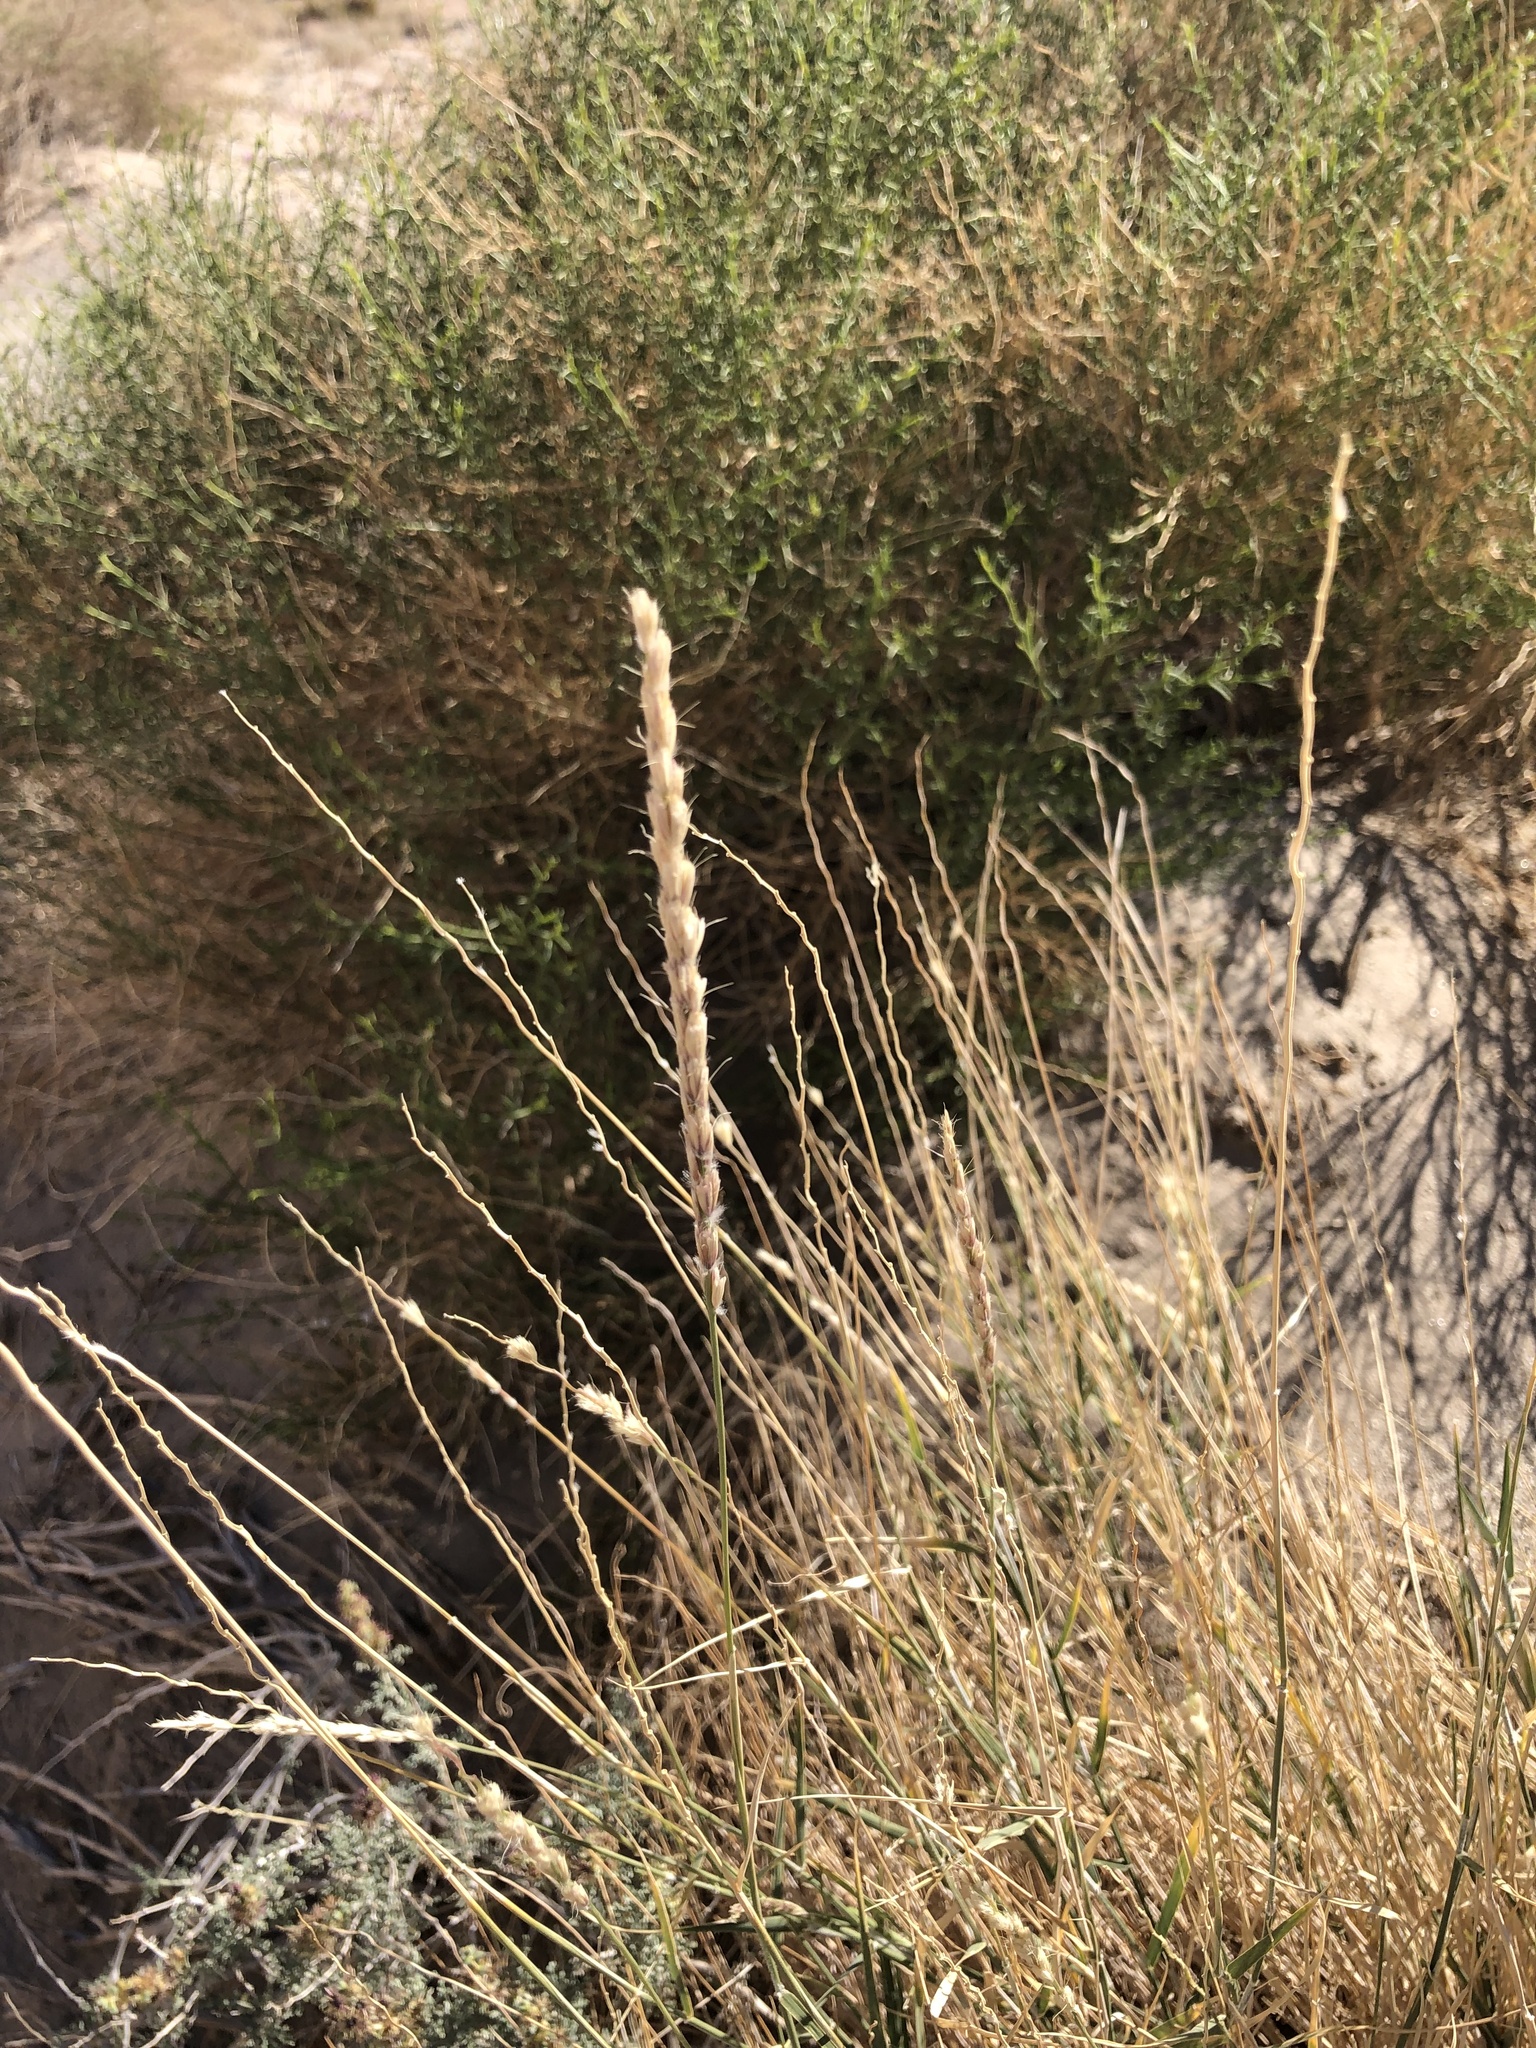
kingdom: Plantae
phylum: Tracheophyta
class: Liliopsida
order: Poales
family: Poaceae
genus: Hilaria
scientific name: Hilaria rigida
